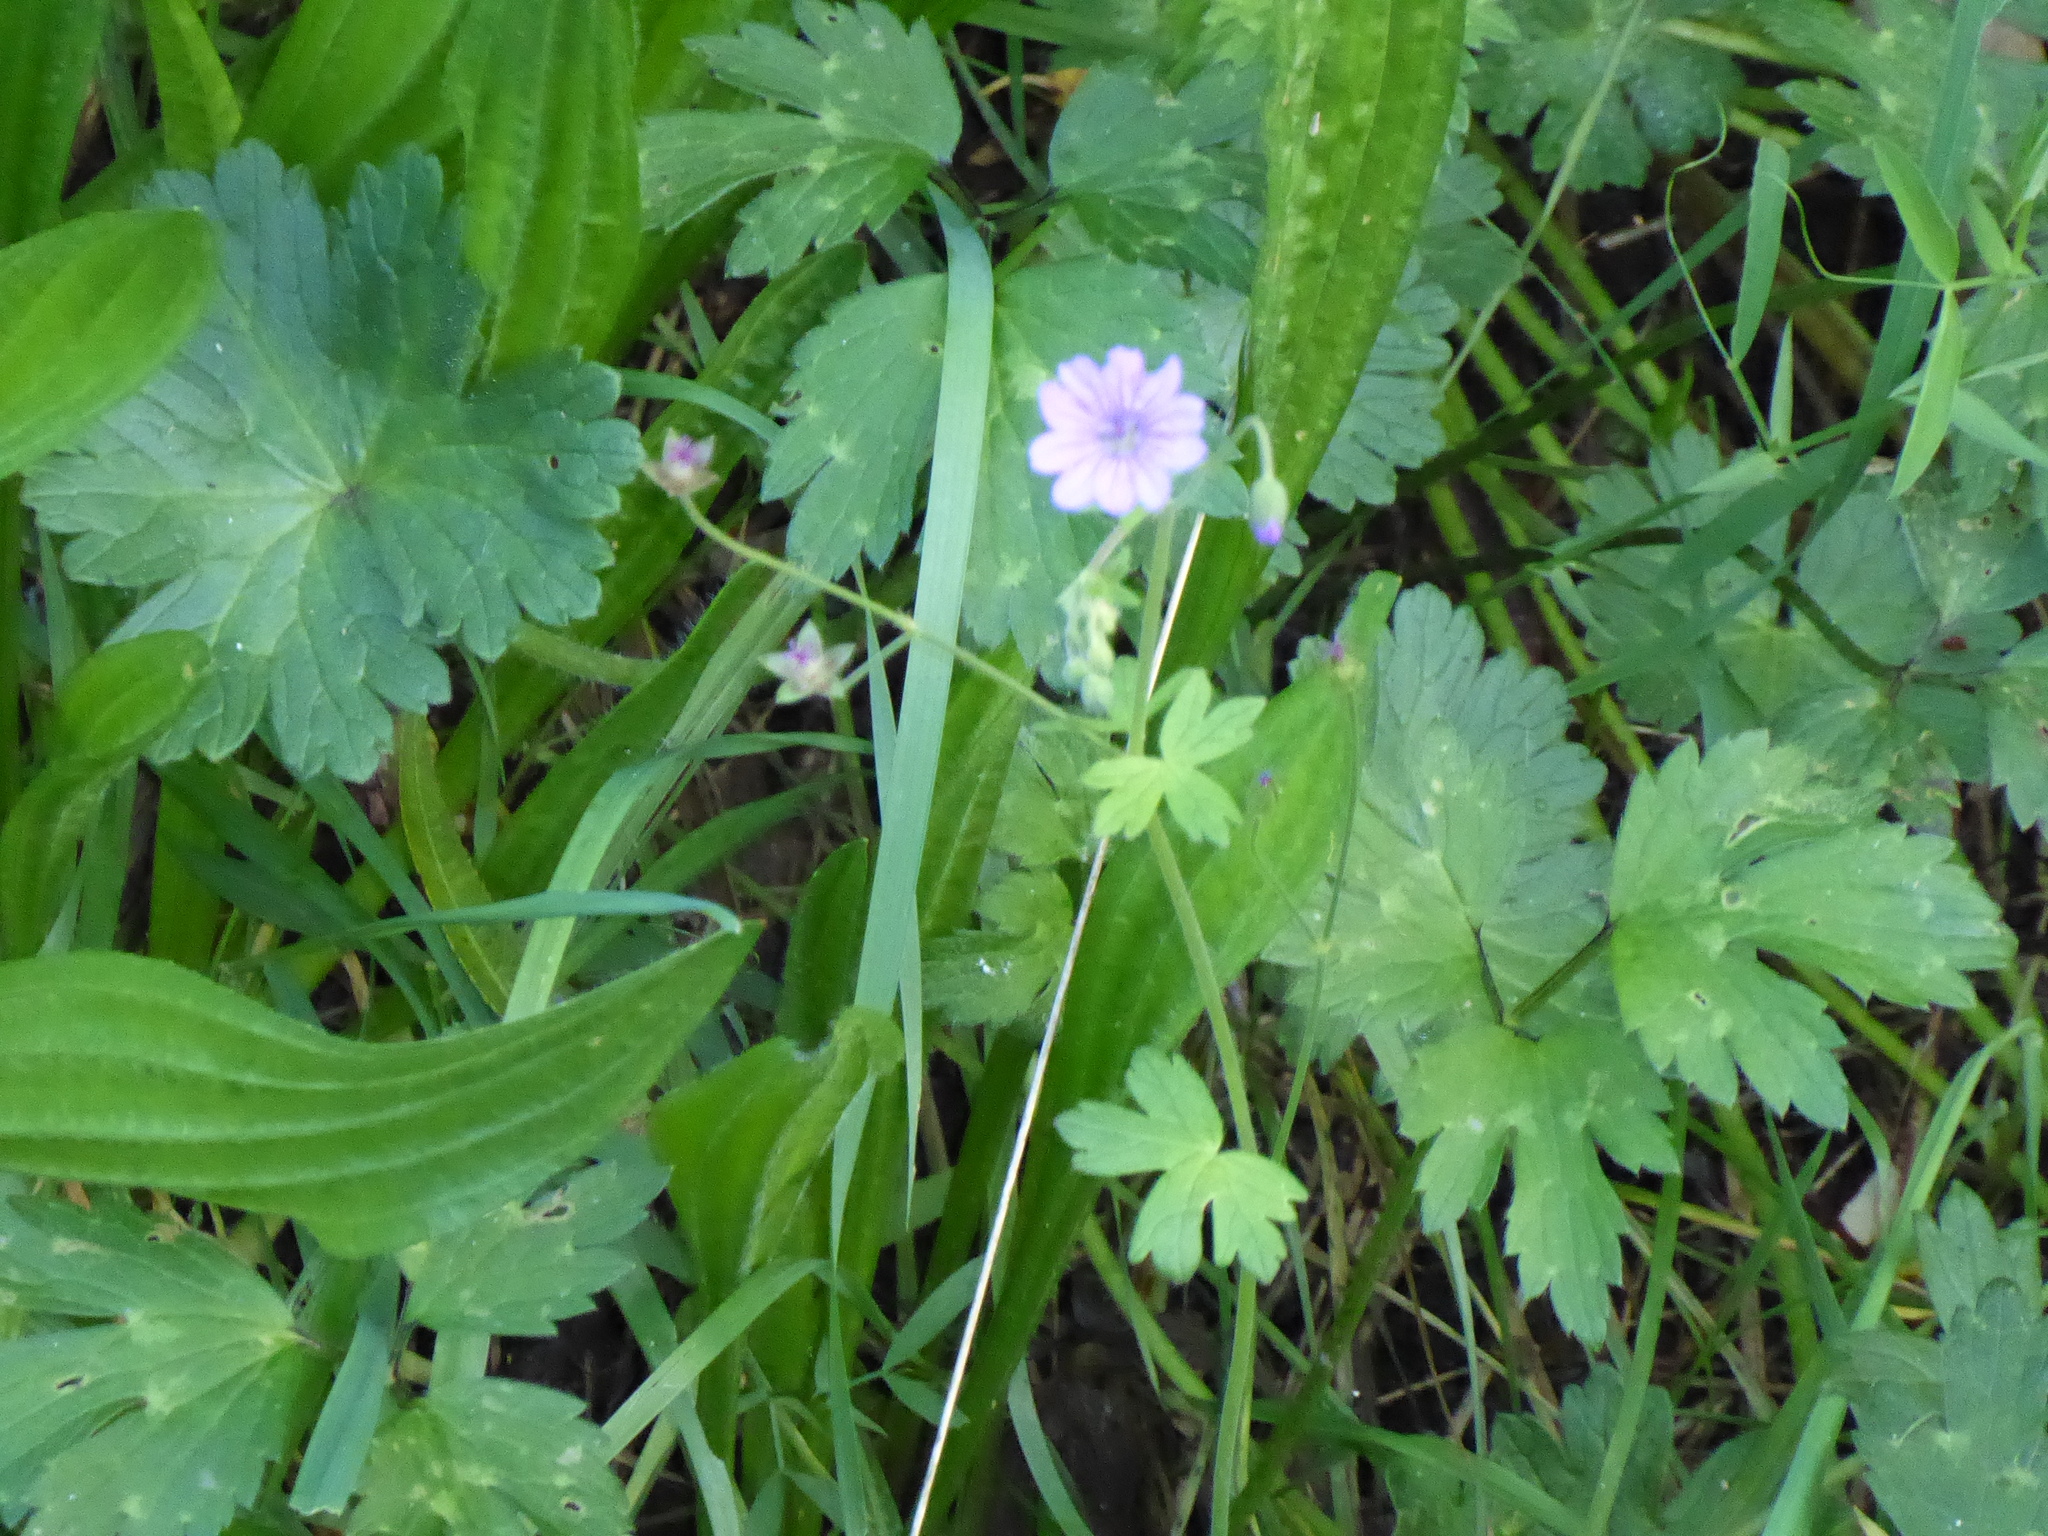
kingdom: Plantae
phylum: Tracheophyta
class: Magnoliopsida
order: Geraniales
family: Geraniaceae
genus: Geranium
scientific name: Geranium pyrenaicum
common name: Hedgerow crane's-bill
